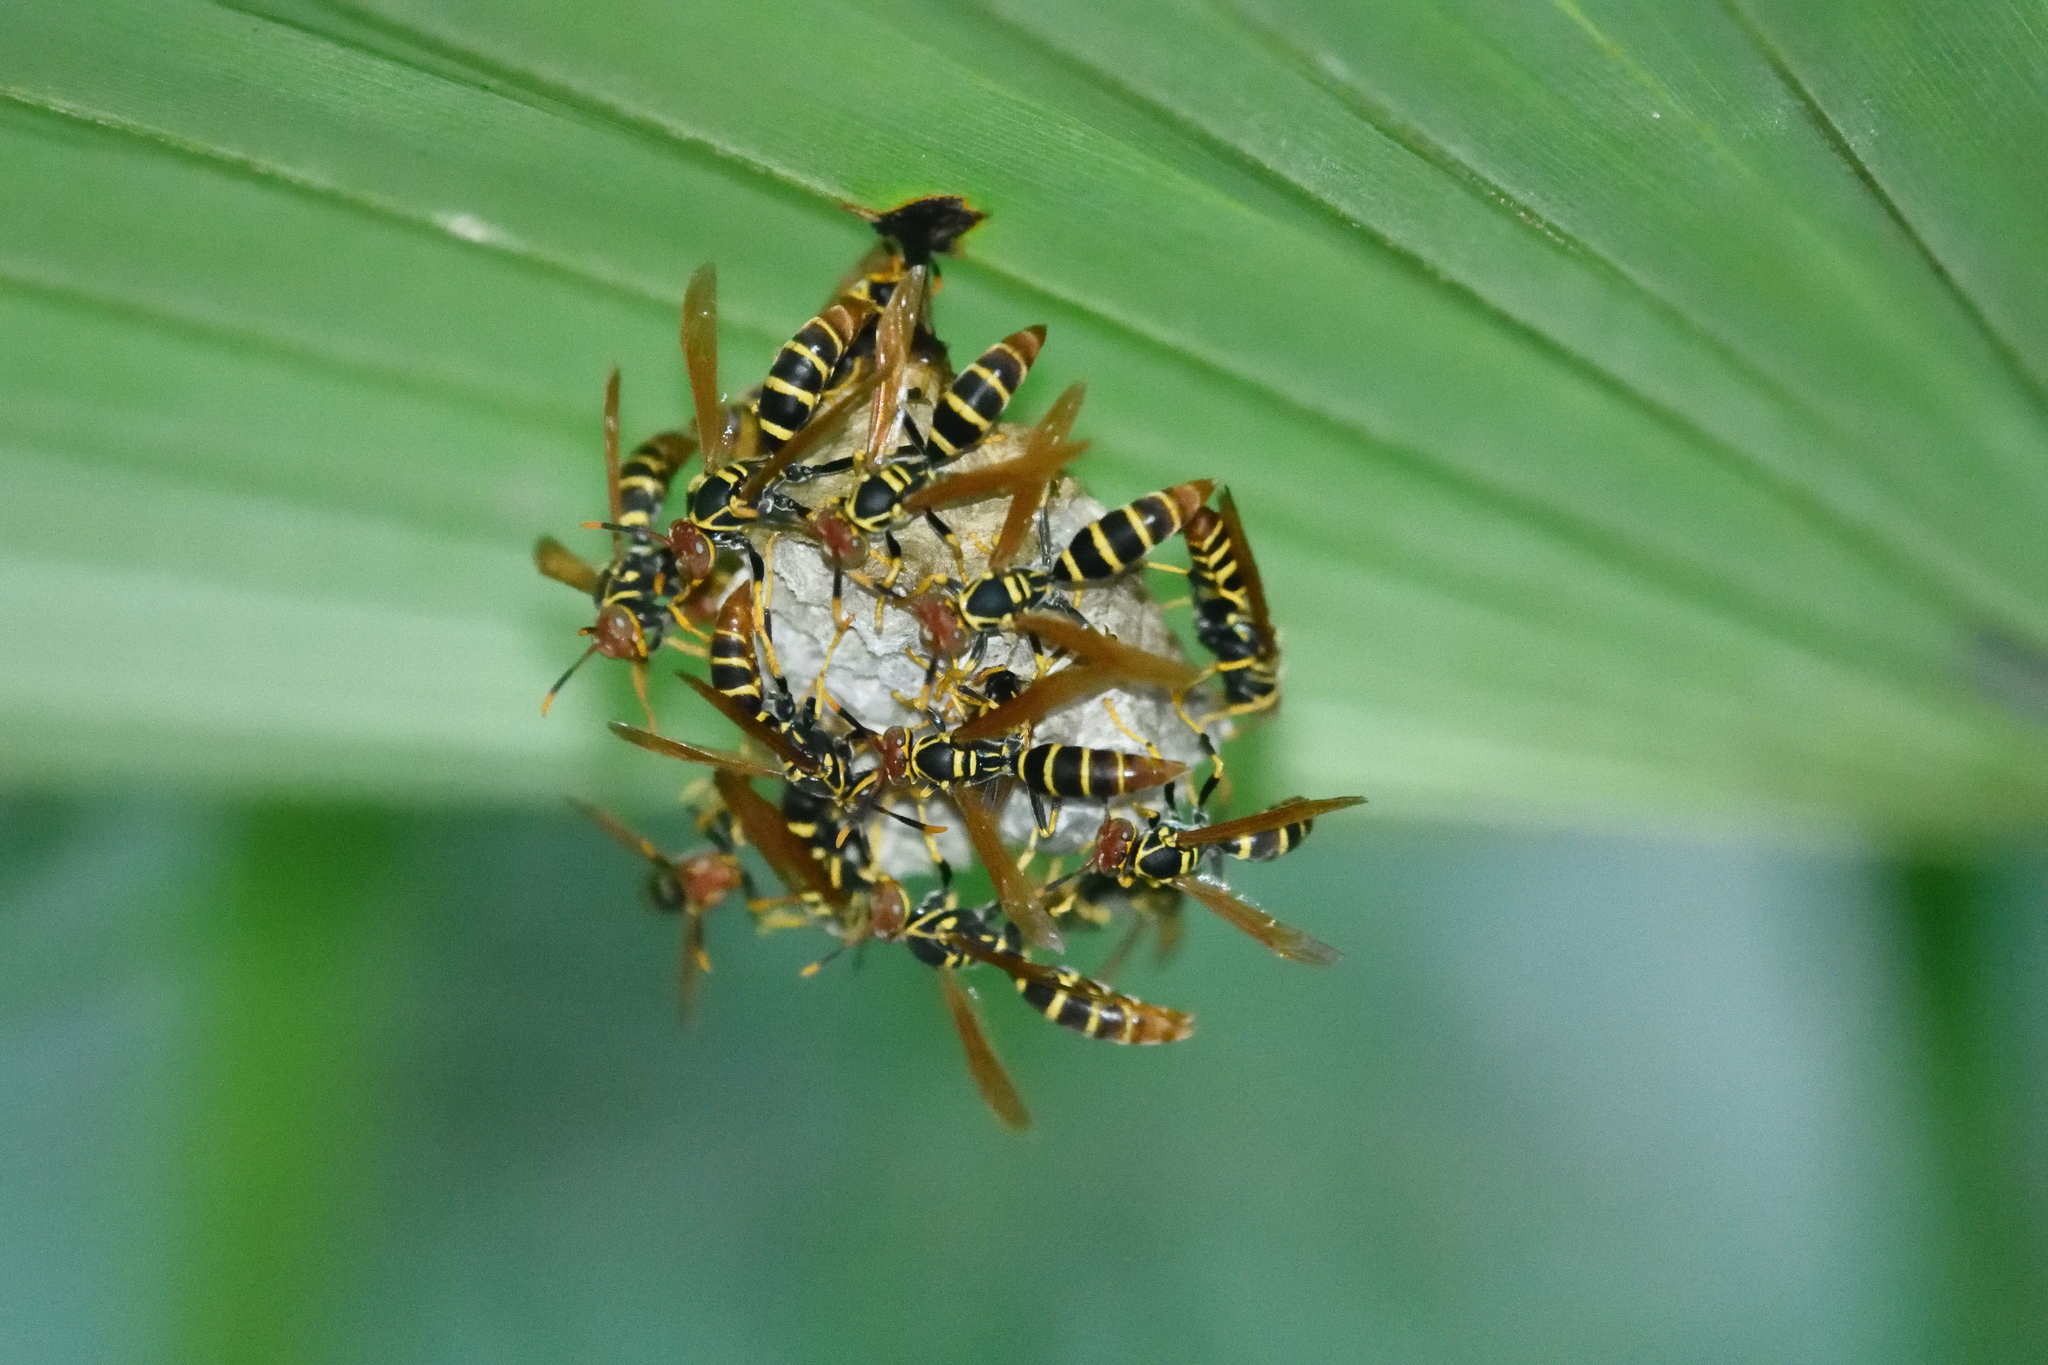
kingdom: Animalia
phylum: Arthropoda
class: Insecta
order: Hymenoptera
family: Eumenidae
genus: Polistes
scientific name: Polistes crinitus
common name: Jack spaniard
